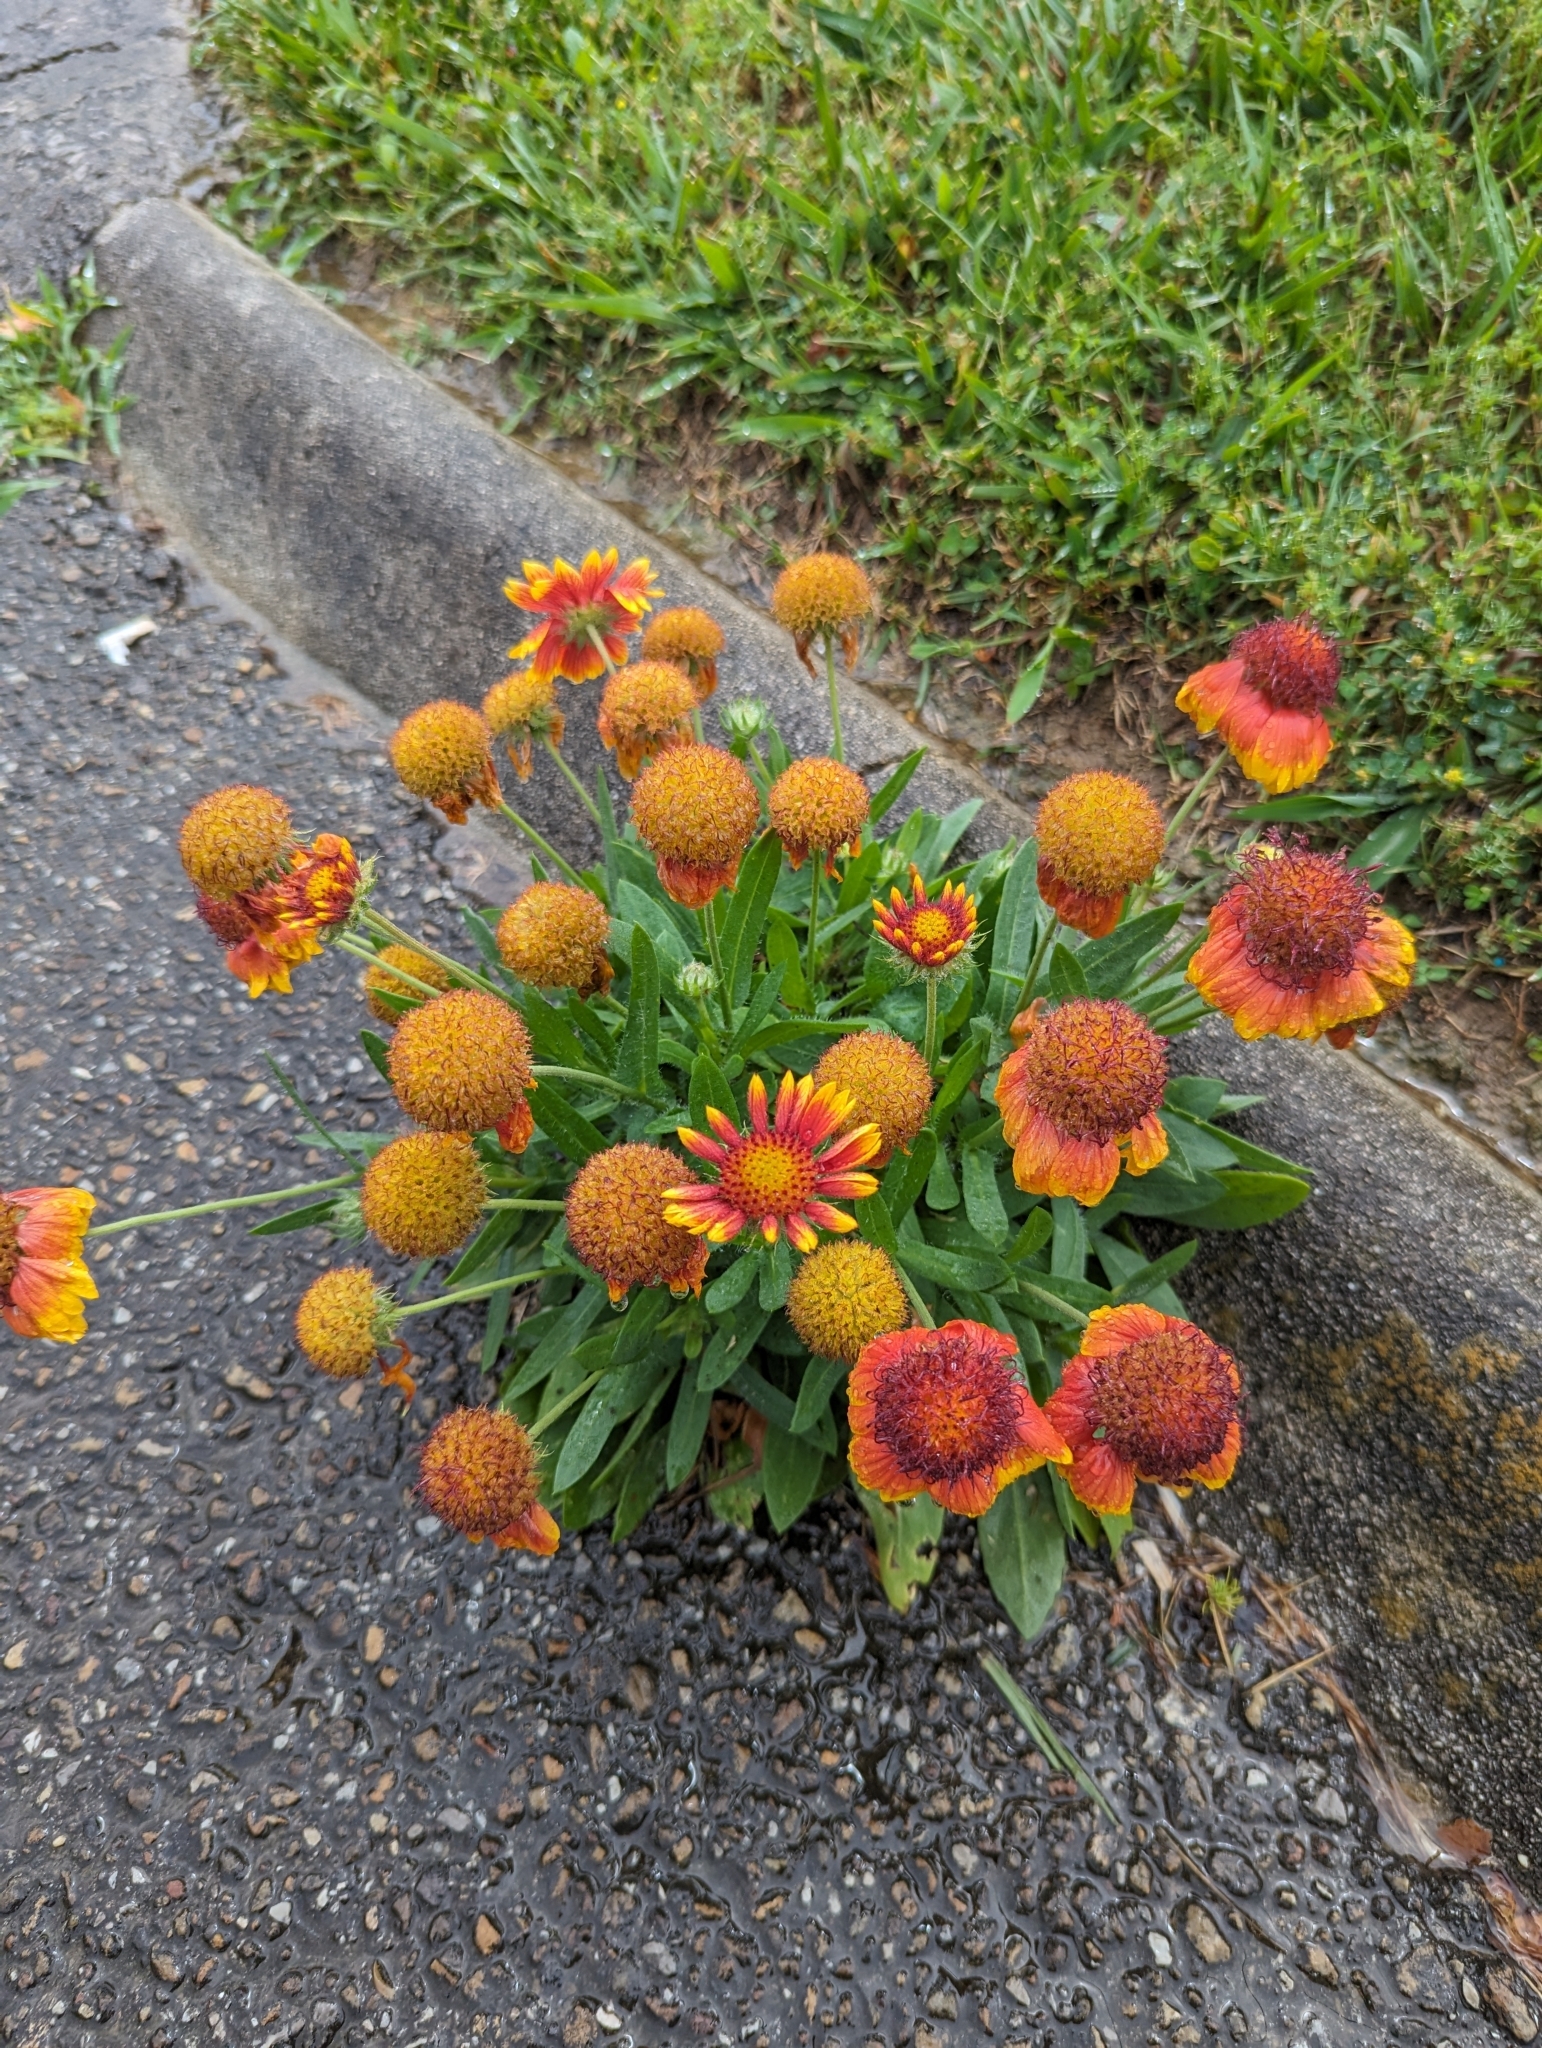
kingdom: Plantae
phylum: Tracheophyta
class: Magnoliopsida
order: Asterales
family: Asteraceae
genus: Gaillardia
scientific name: Gaillardia pulchella
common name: Firewheel
